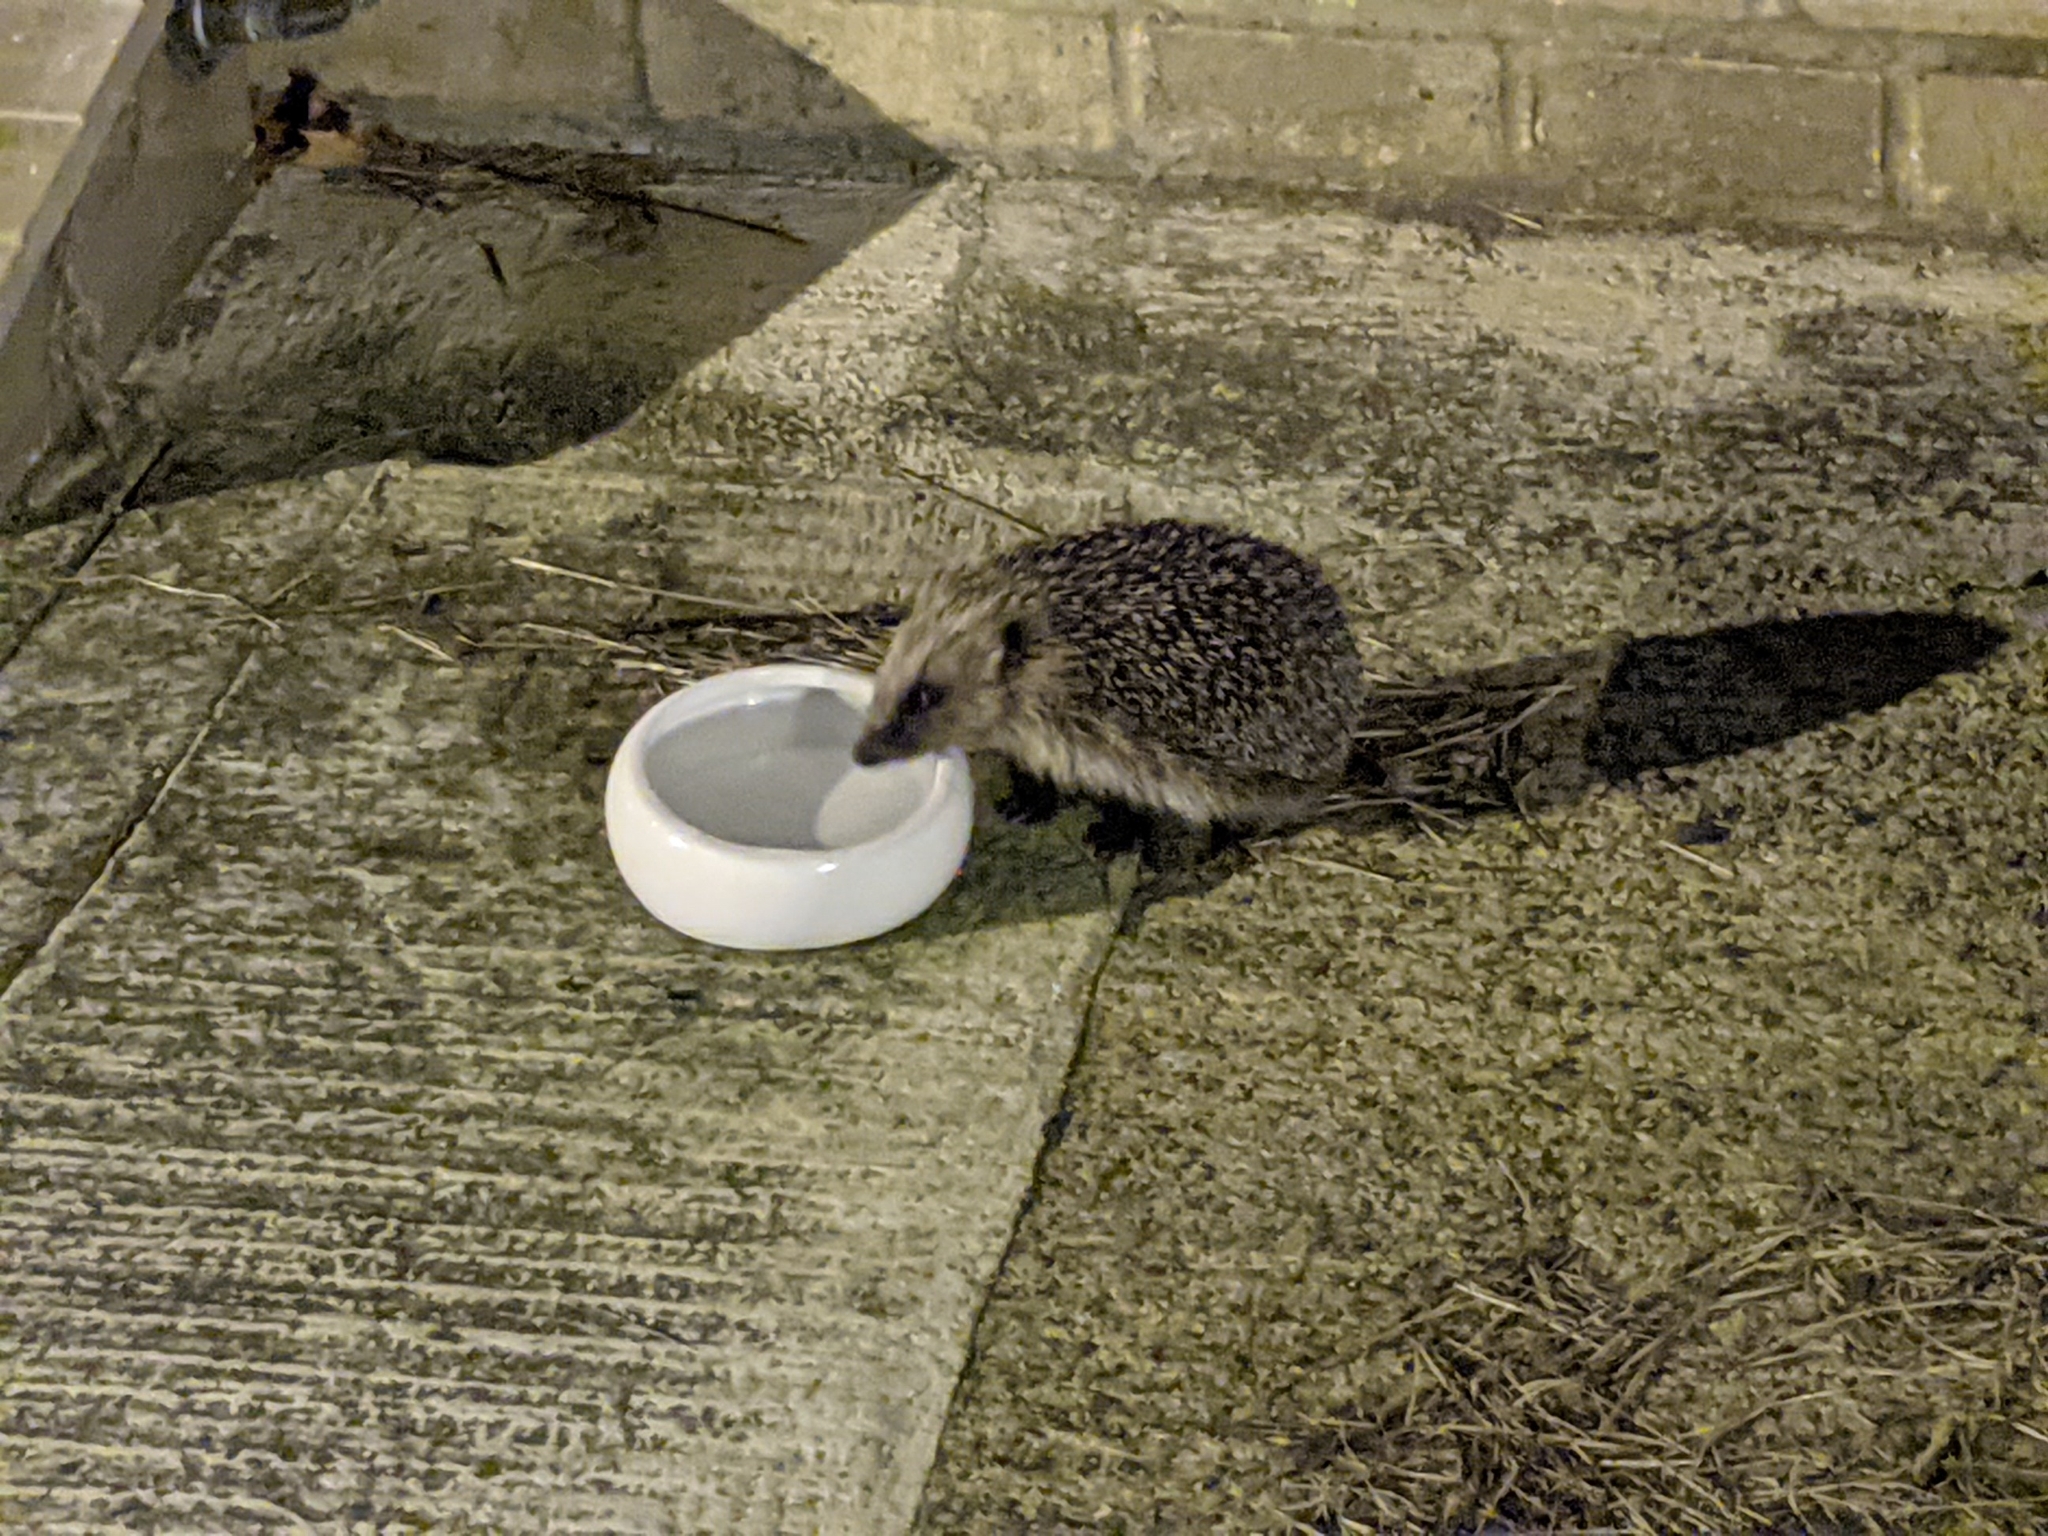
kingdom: Animalia
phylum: Chordata
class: Mammalia
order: Erinaceomorpha
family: Erinaceidae
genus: Erinaceus
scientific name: Erinaceus europaeus
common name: West european hedgehog
